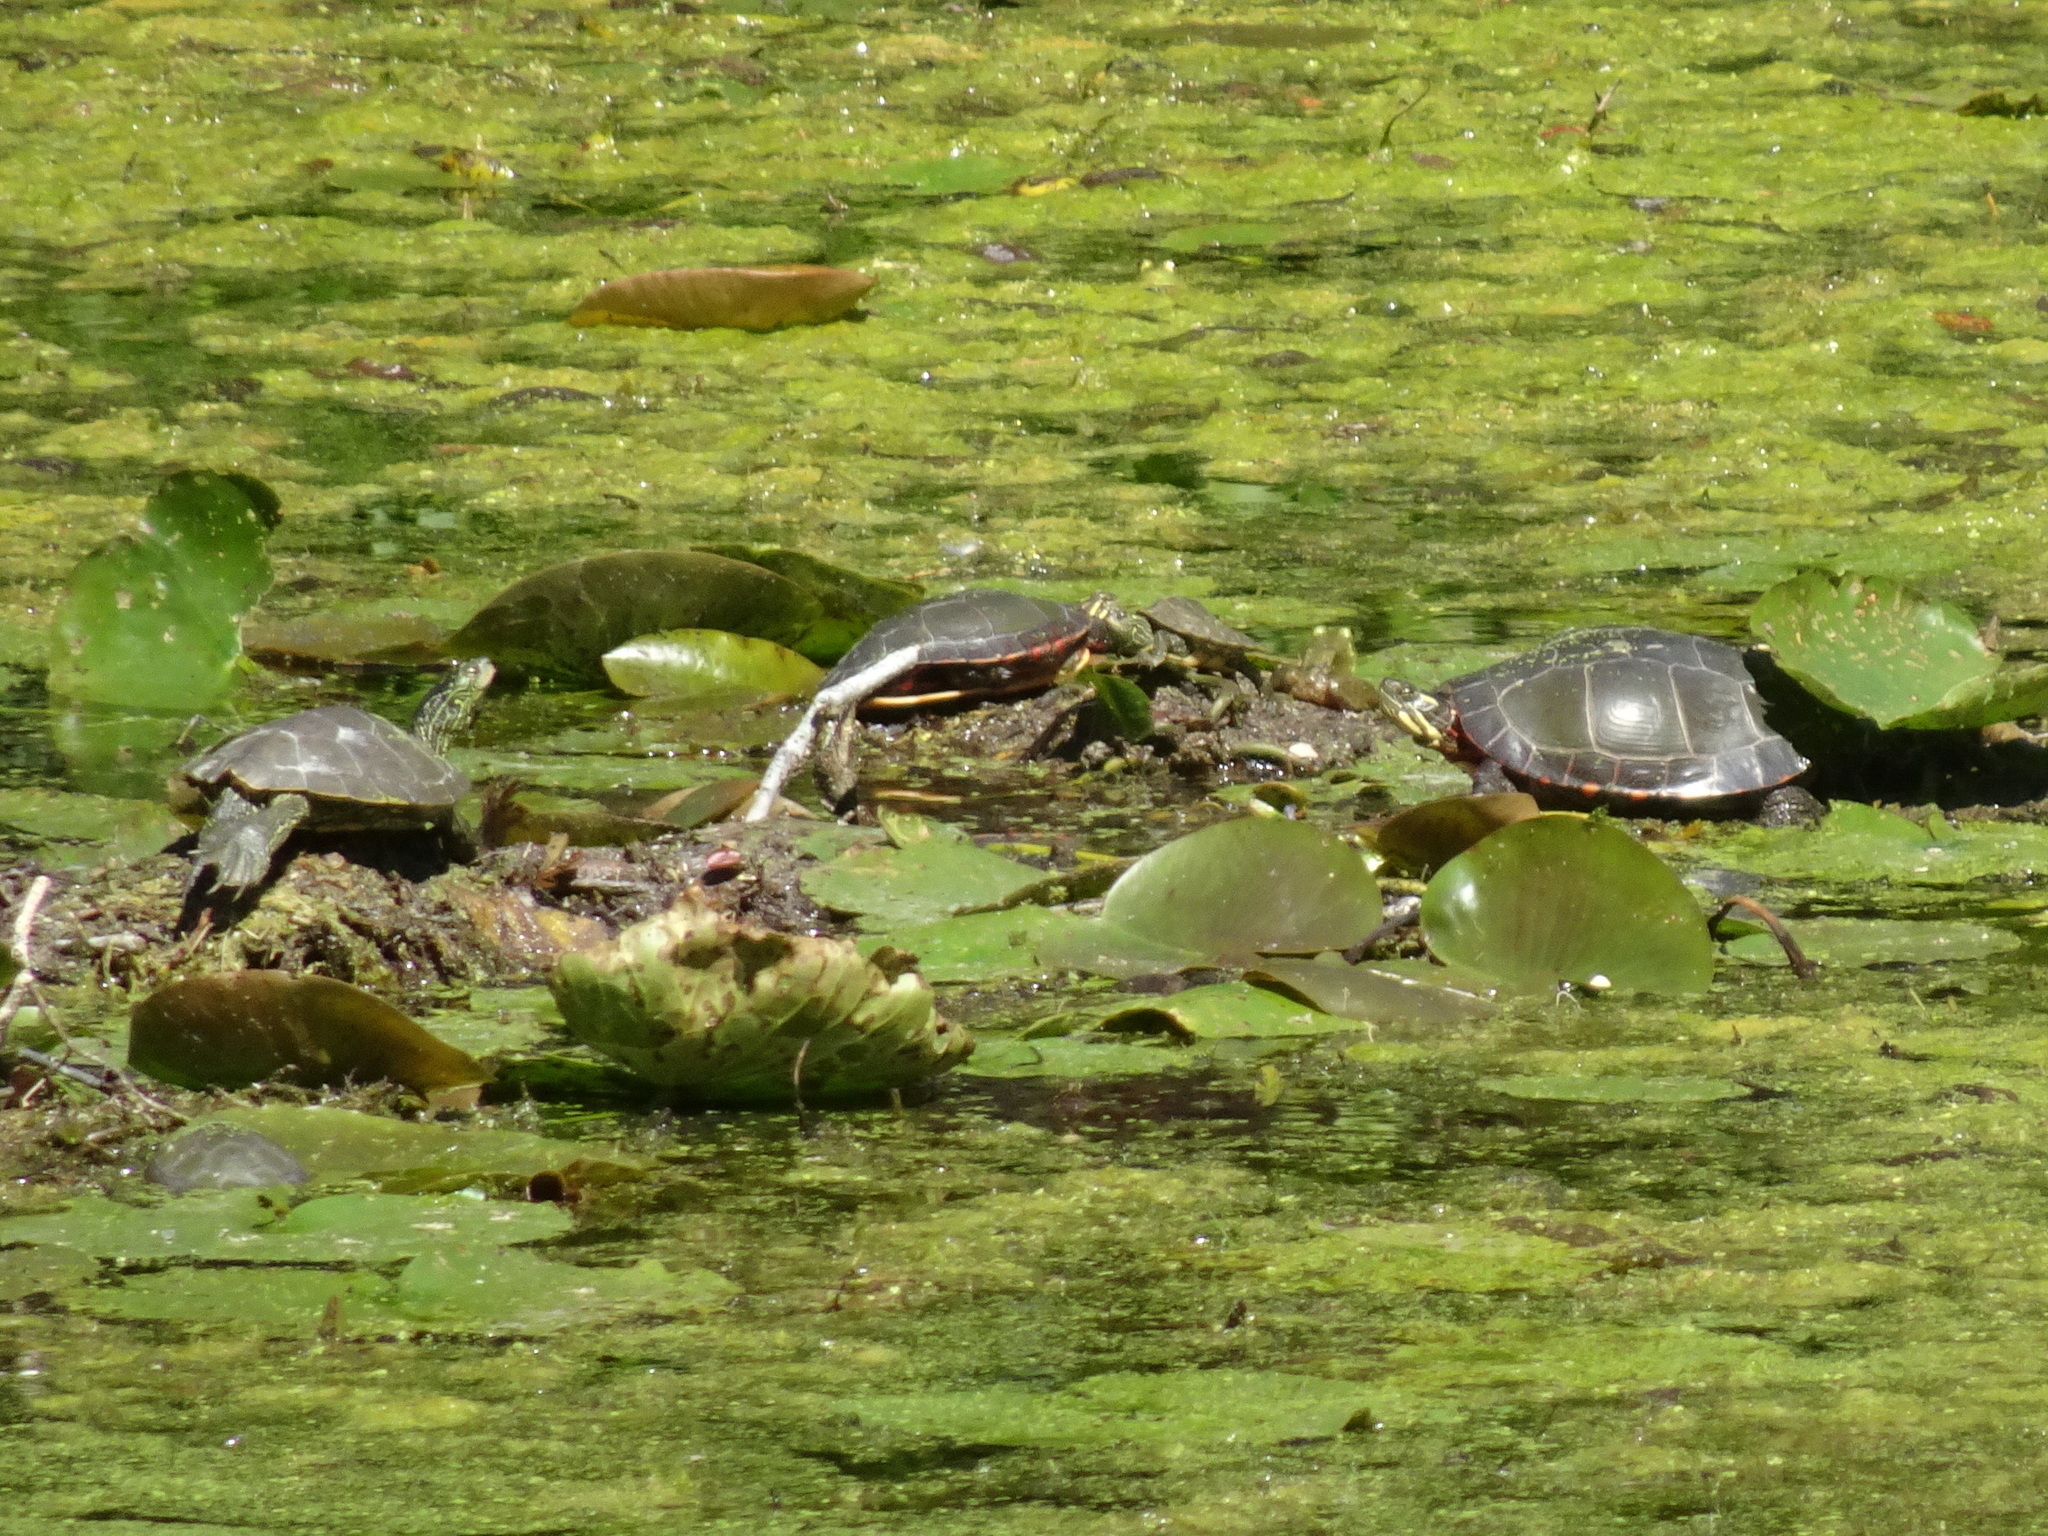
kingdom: Animalia
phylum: Chordata
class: Testudines
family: Emydidae
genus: Graptemys
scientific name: Graptemys geographica
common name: Common map turtle
